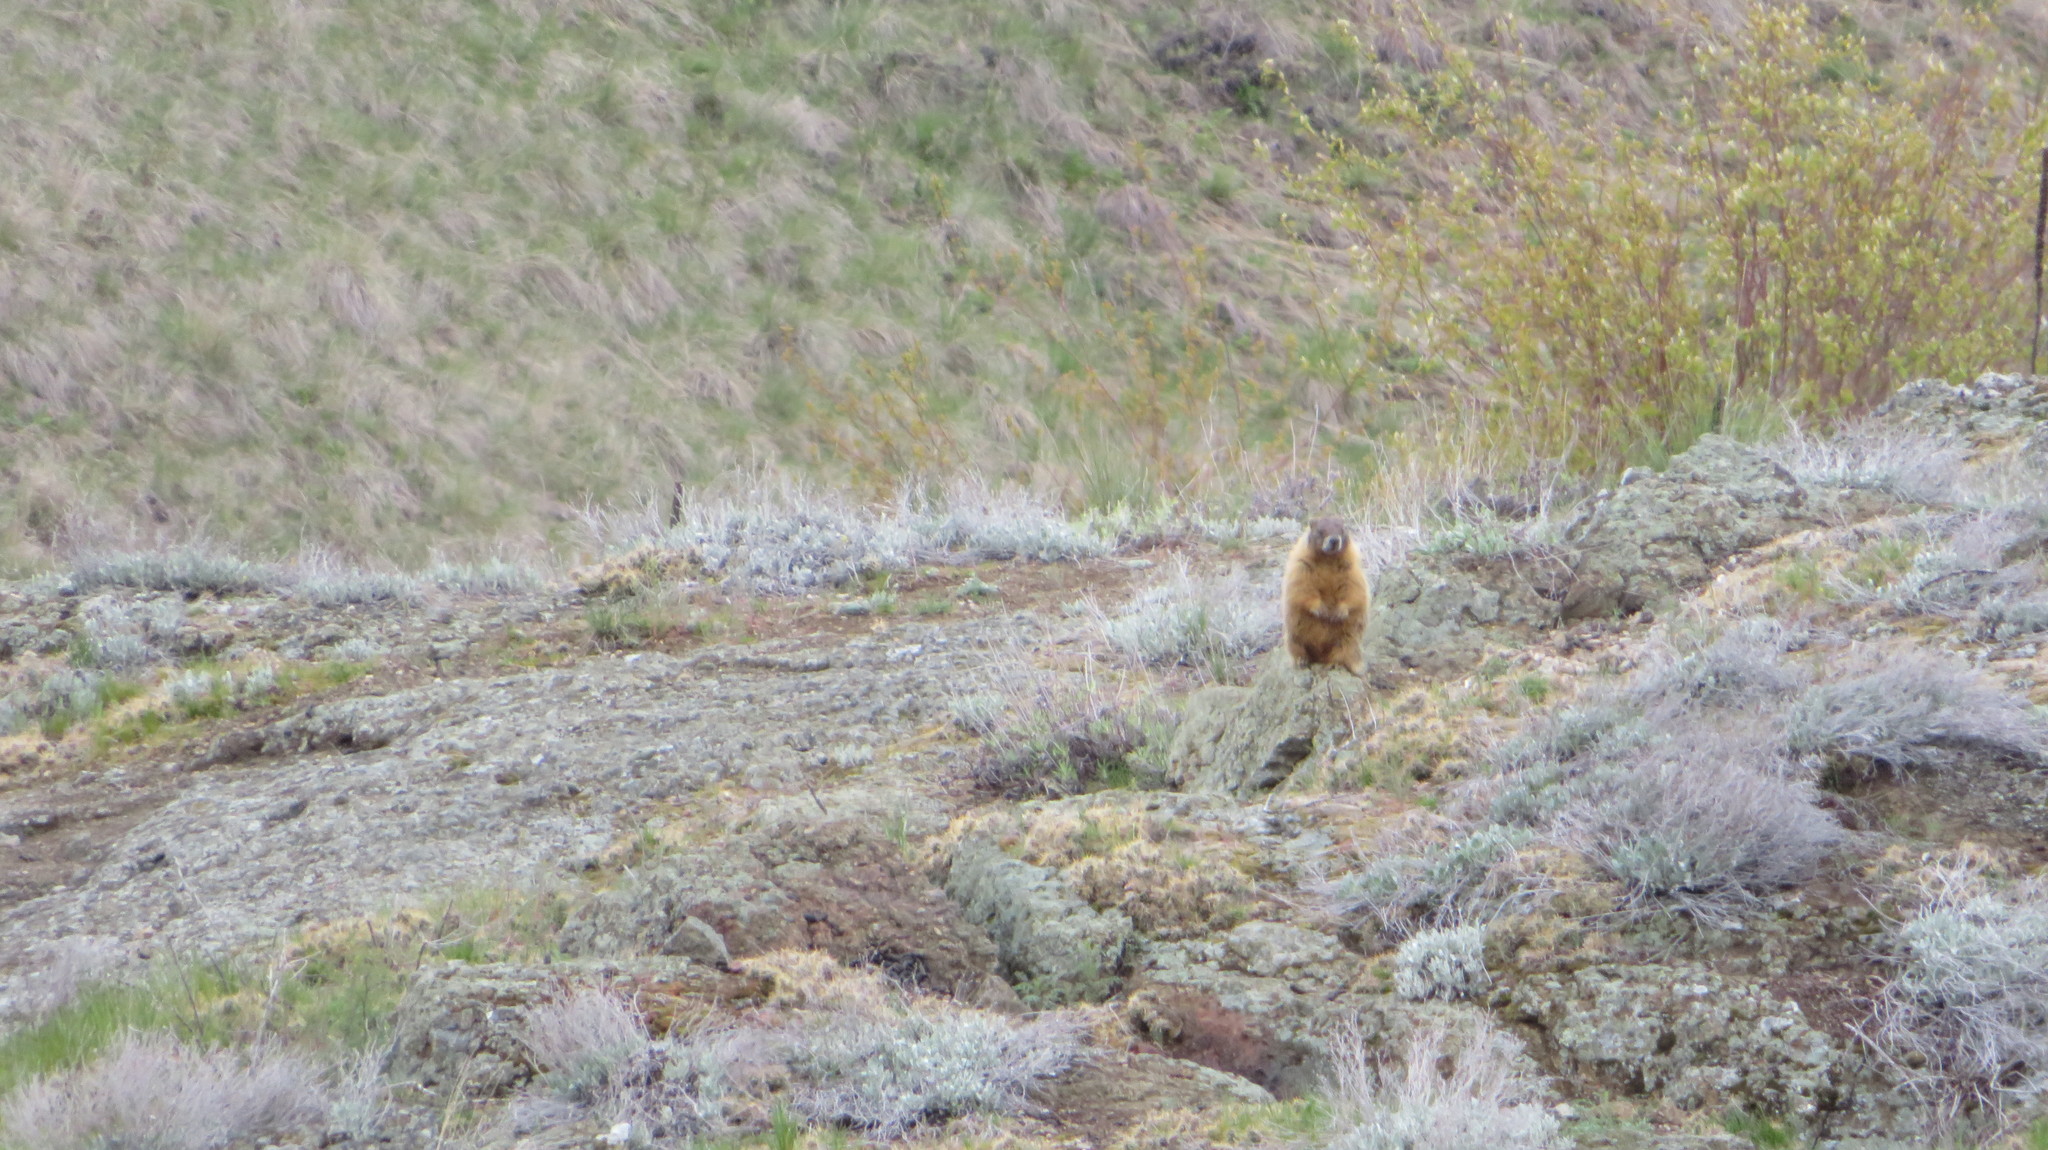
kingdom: Animalia
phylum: Chordata
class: Mammalia
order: Rodentia
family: Sciuridae
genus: Marmota
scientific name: Marmota flaviventris
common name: Yellow-bellied marmot
